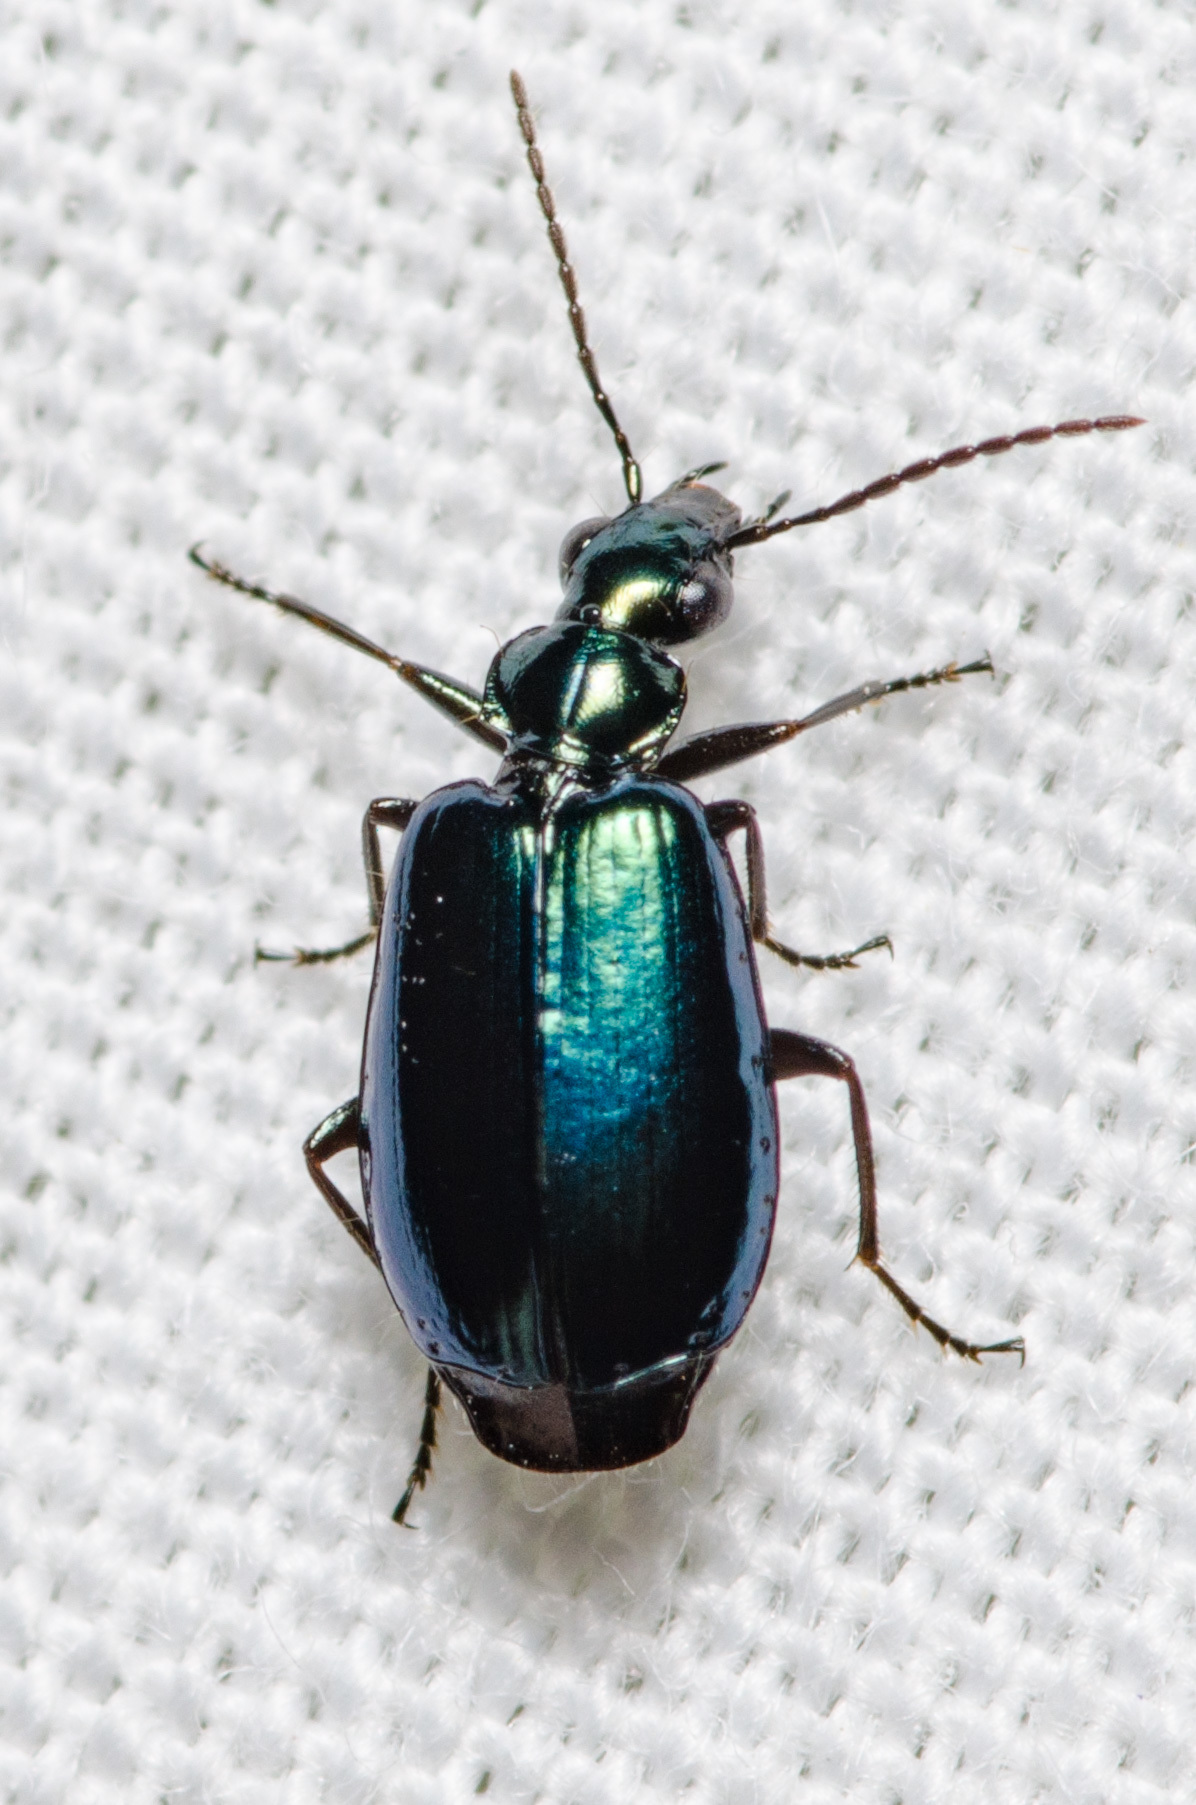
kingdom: Animalia
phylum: Arthropoda
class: Insecta
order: Coleoptera
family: Carabidae
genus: Lebia
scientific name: Lebia viridis
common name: Flower lebia beetle
